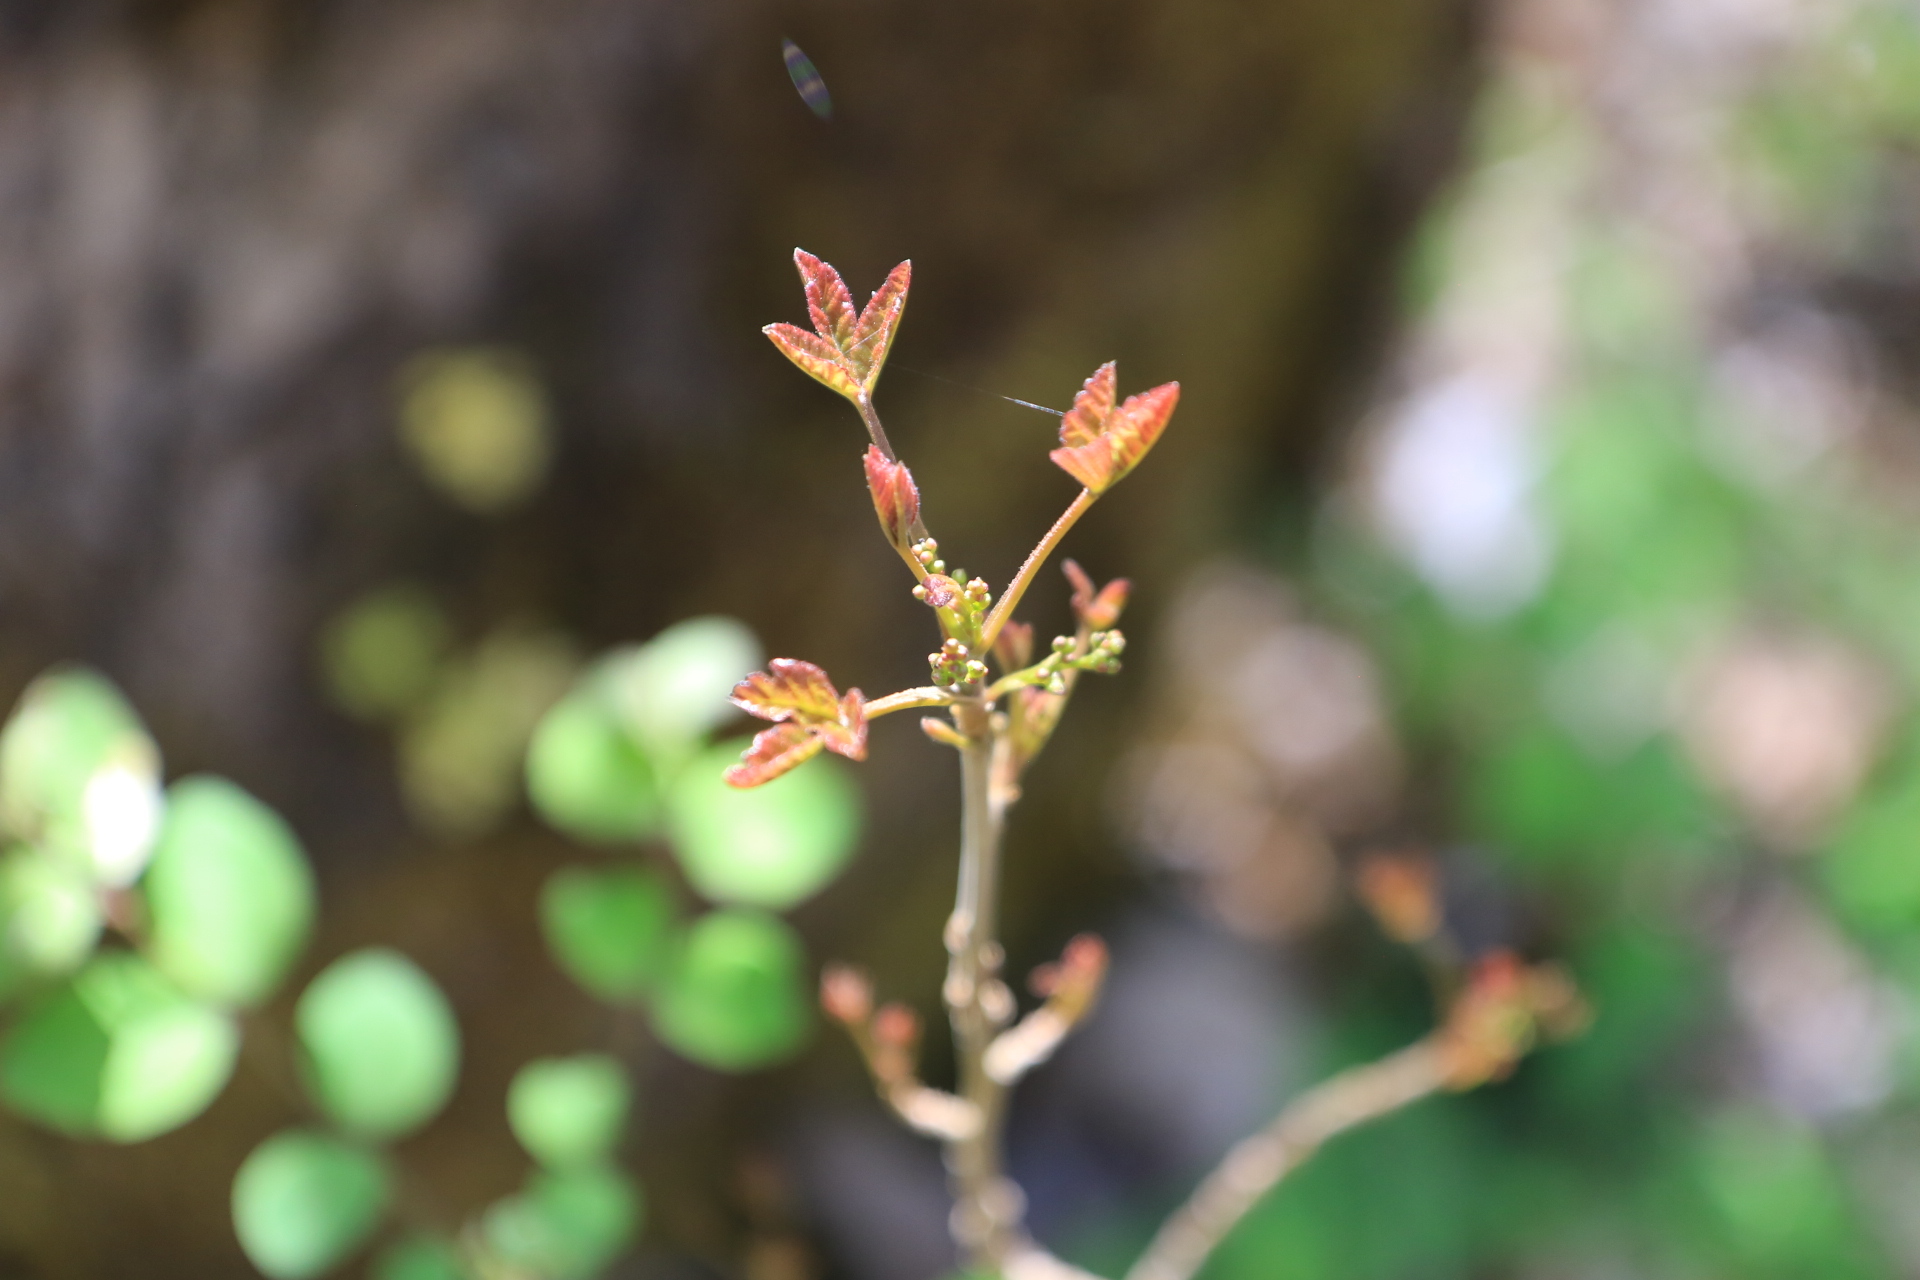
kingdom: Plantae
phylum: Tracheophyta
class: Magnoliopsida
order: Sapindales
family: Anacardiaceae
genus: Toxicodendron
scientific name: Toxicodendron diversilobum
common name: Pacific poison-oak
